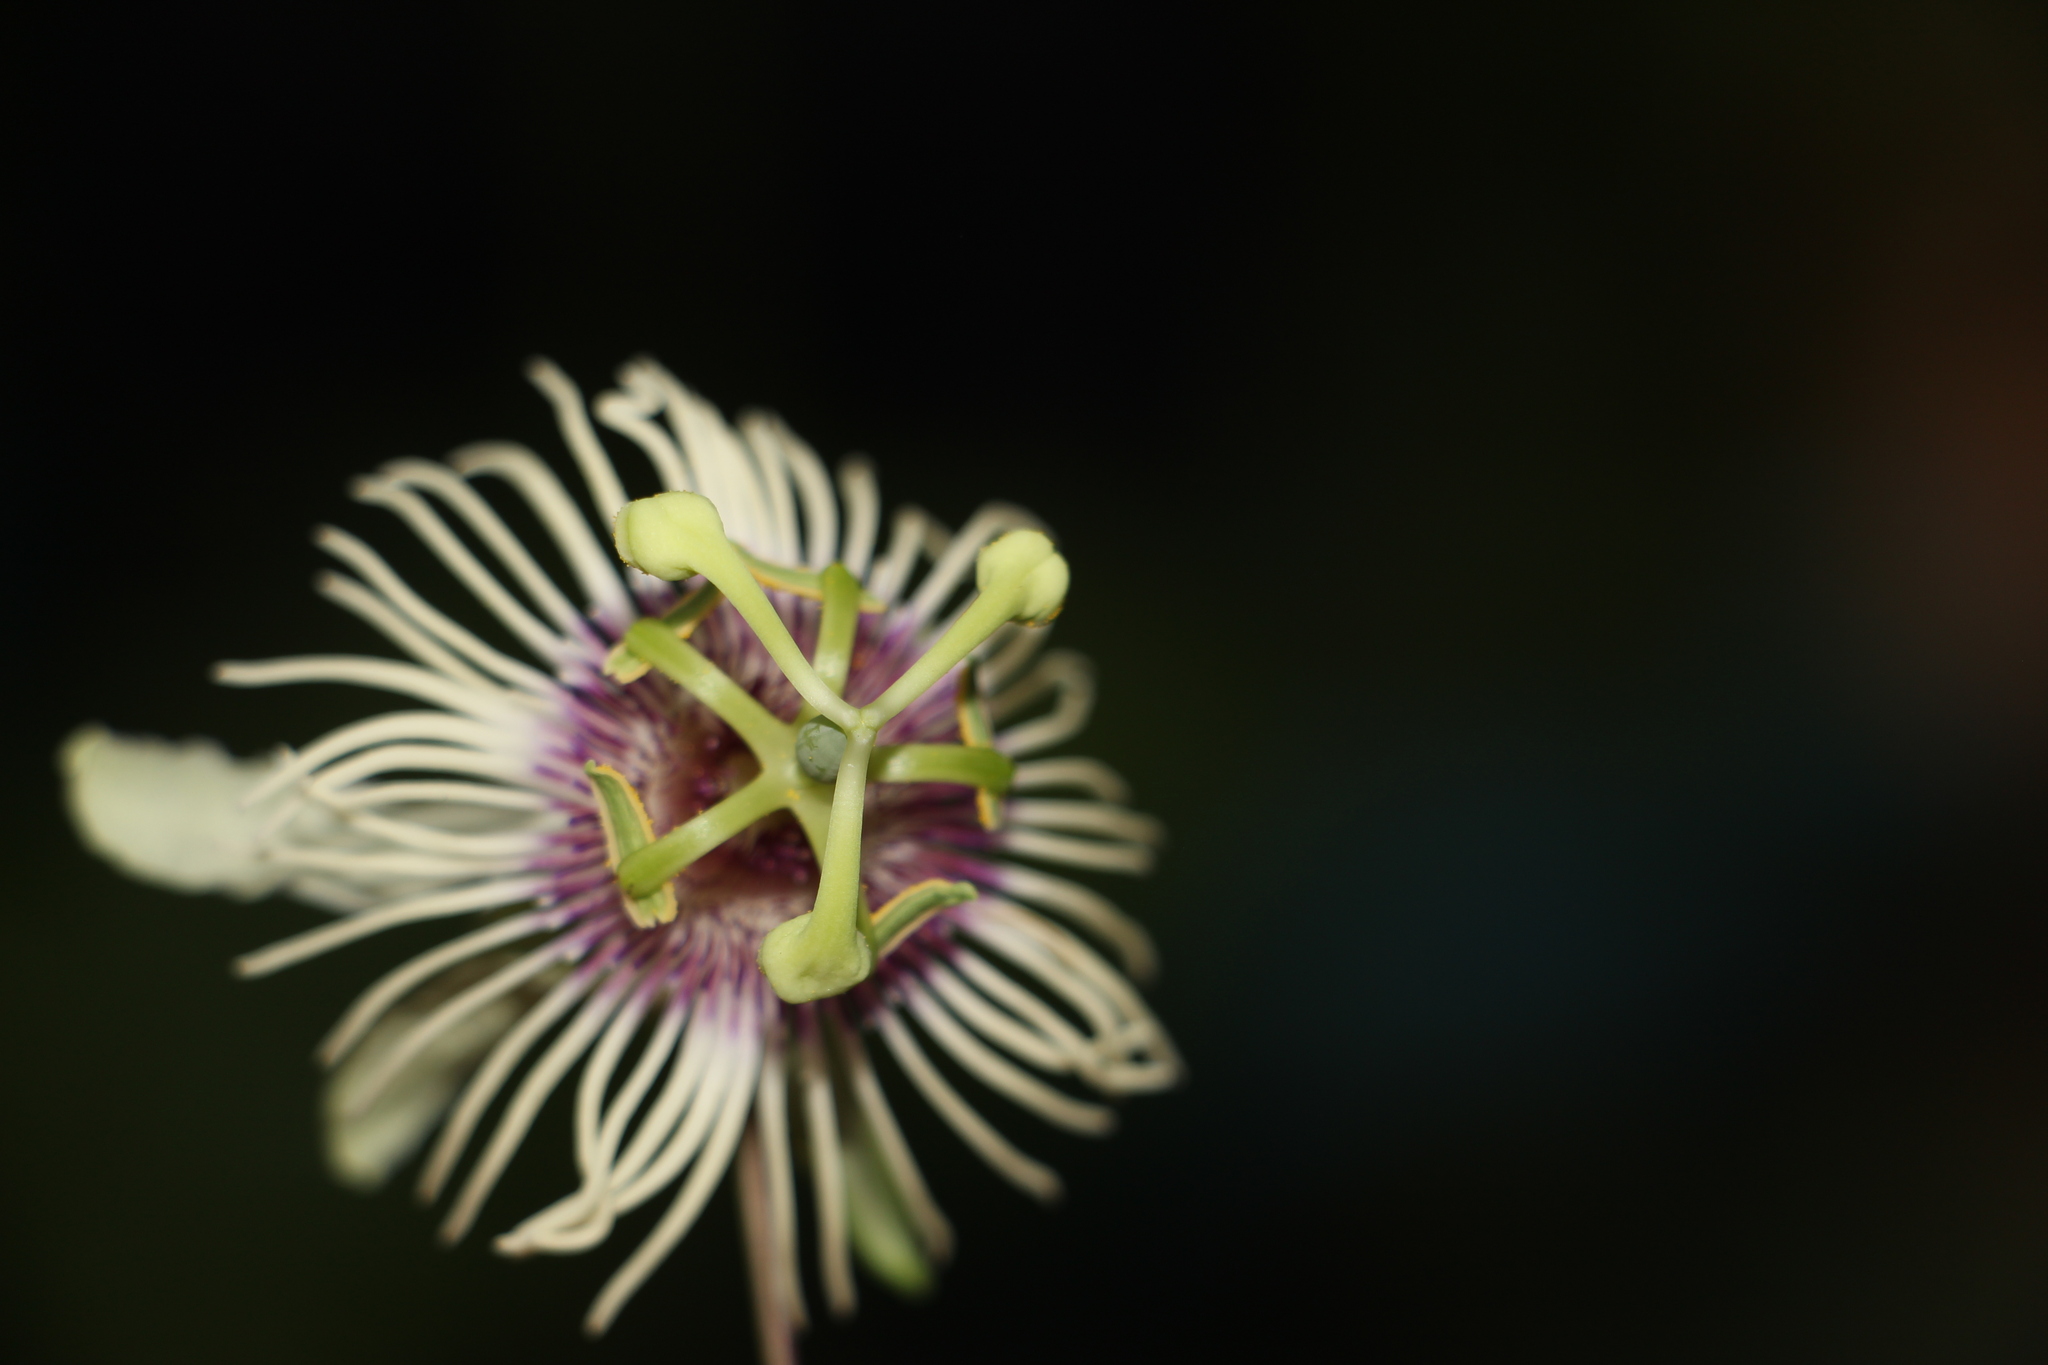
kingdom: Plantae
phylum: Tracheophyta
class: Magnoliopsida
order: Malpighiales
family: Passifloraceae
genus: Passiflora
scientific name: Passiflora lehmannii
